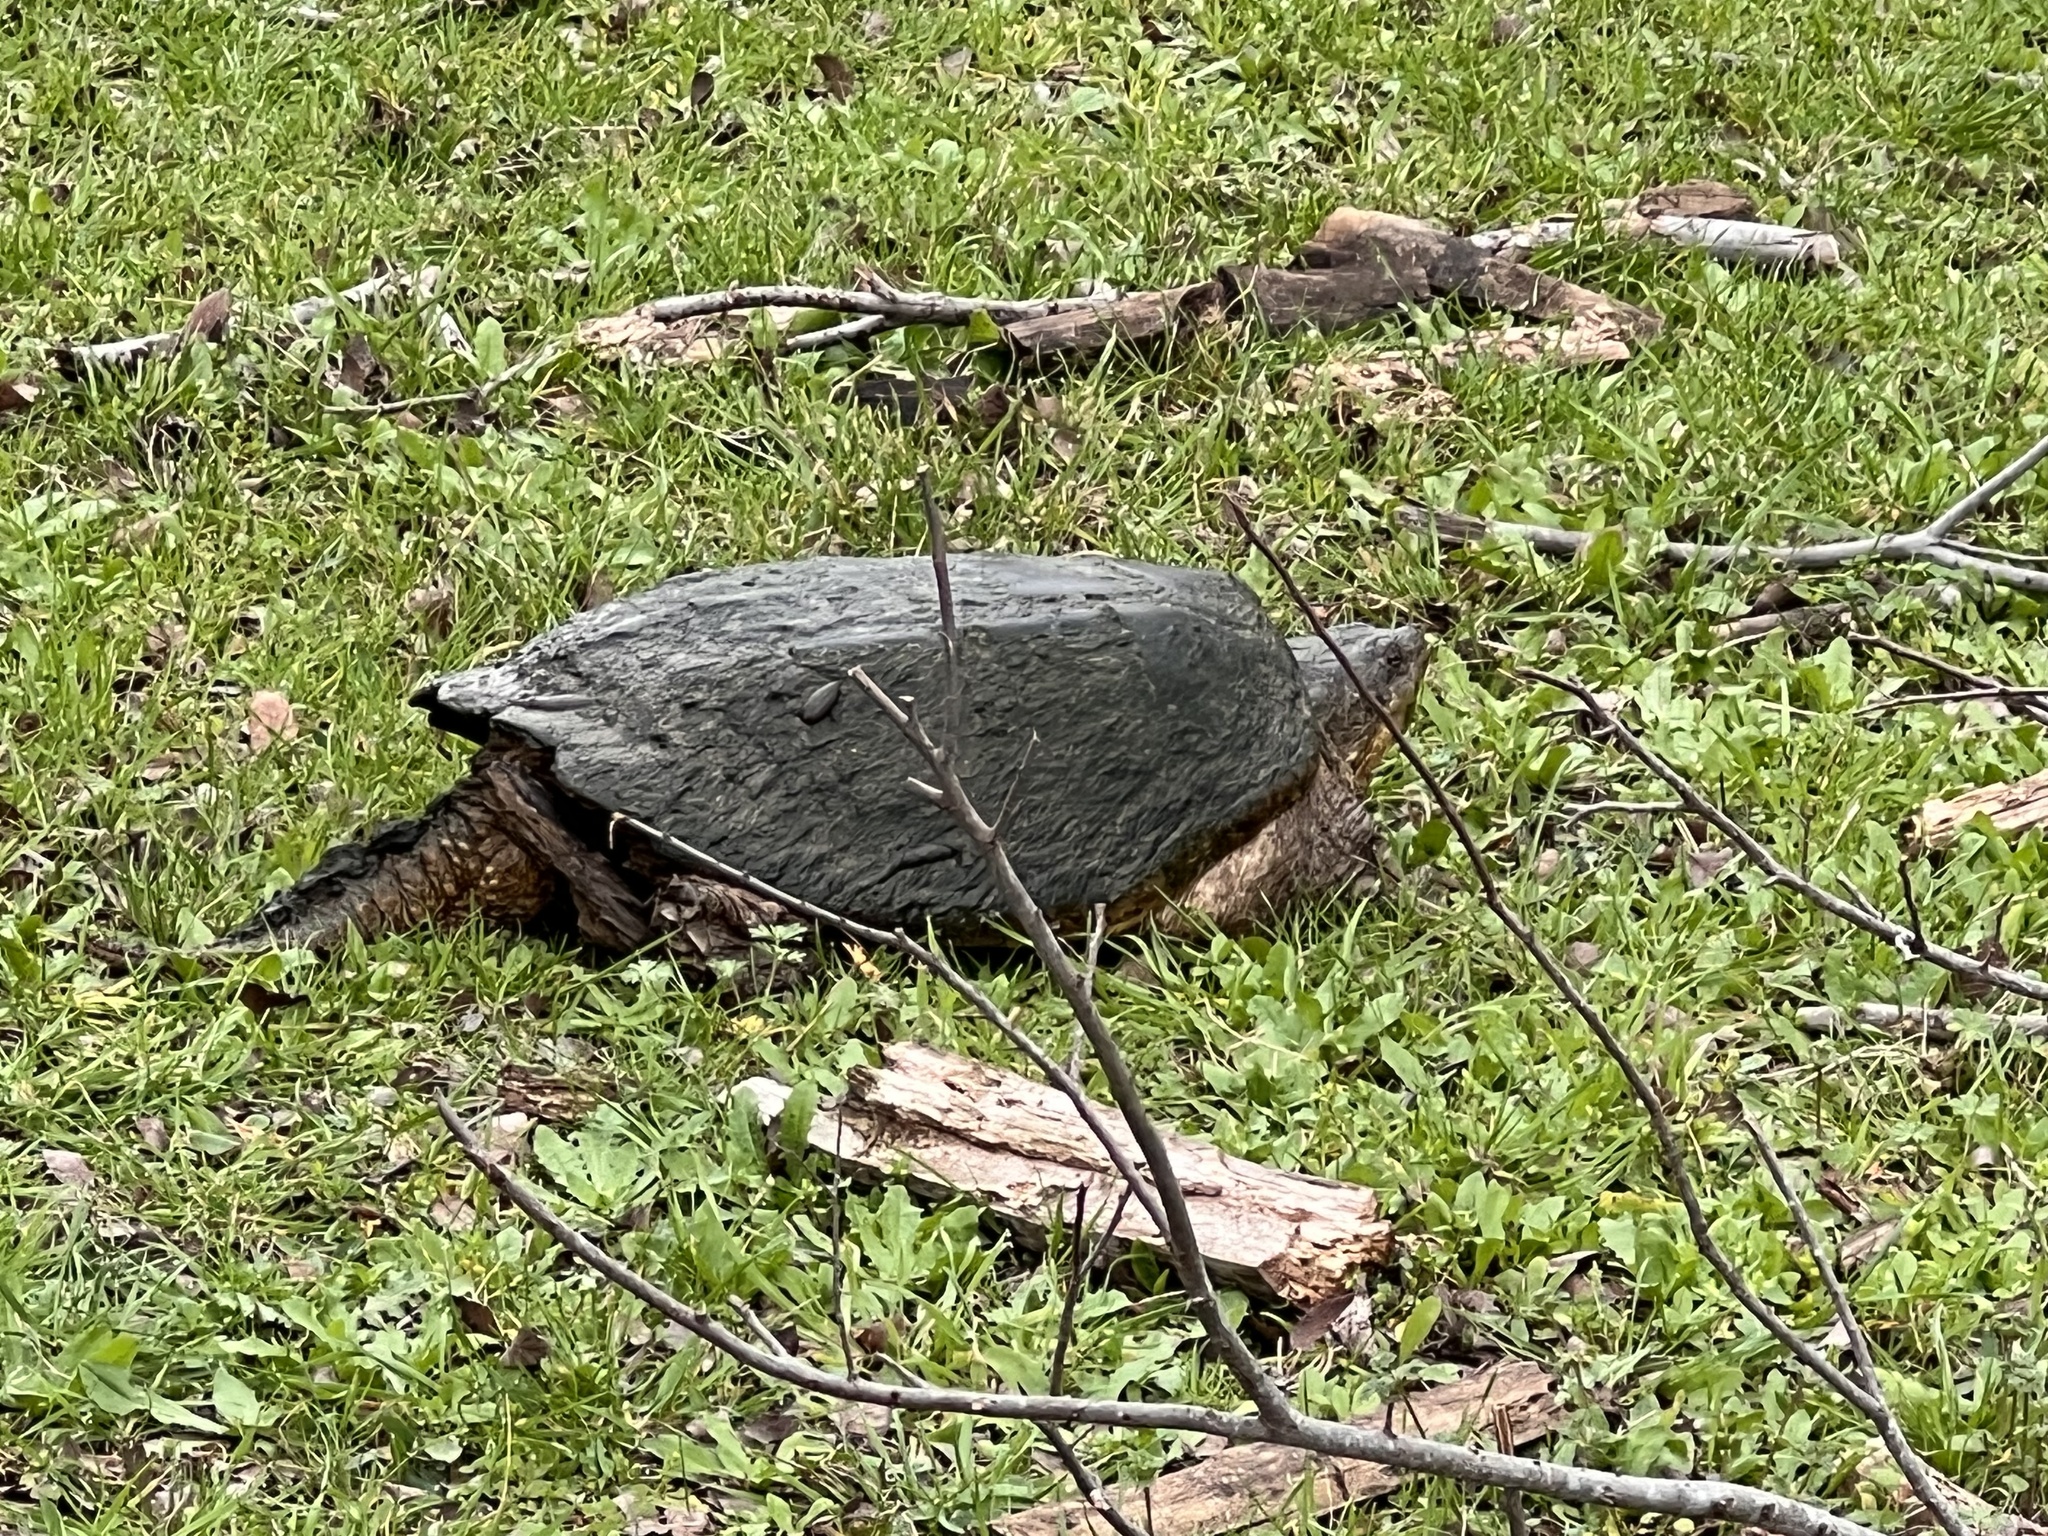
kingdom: Animalia
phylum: Chordata
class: Testudines
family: Chelydridae
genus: Chelydra
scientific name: Chelydra serpentina
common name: Common snapping turtle
